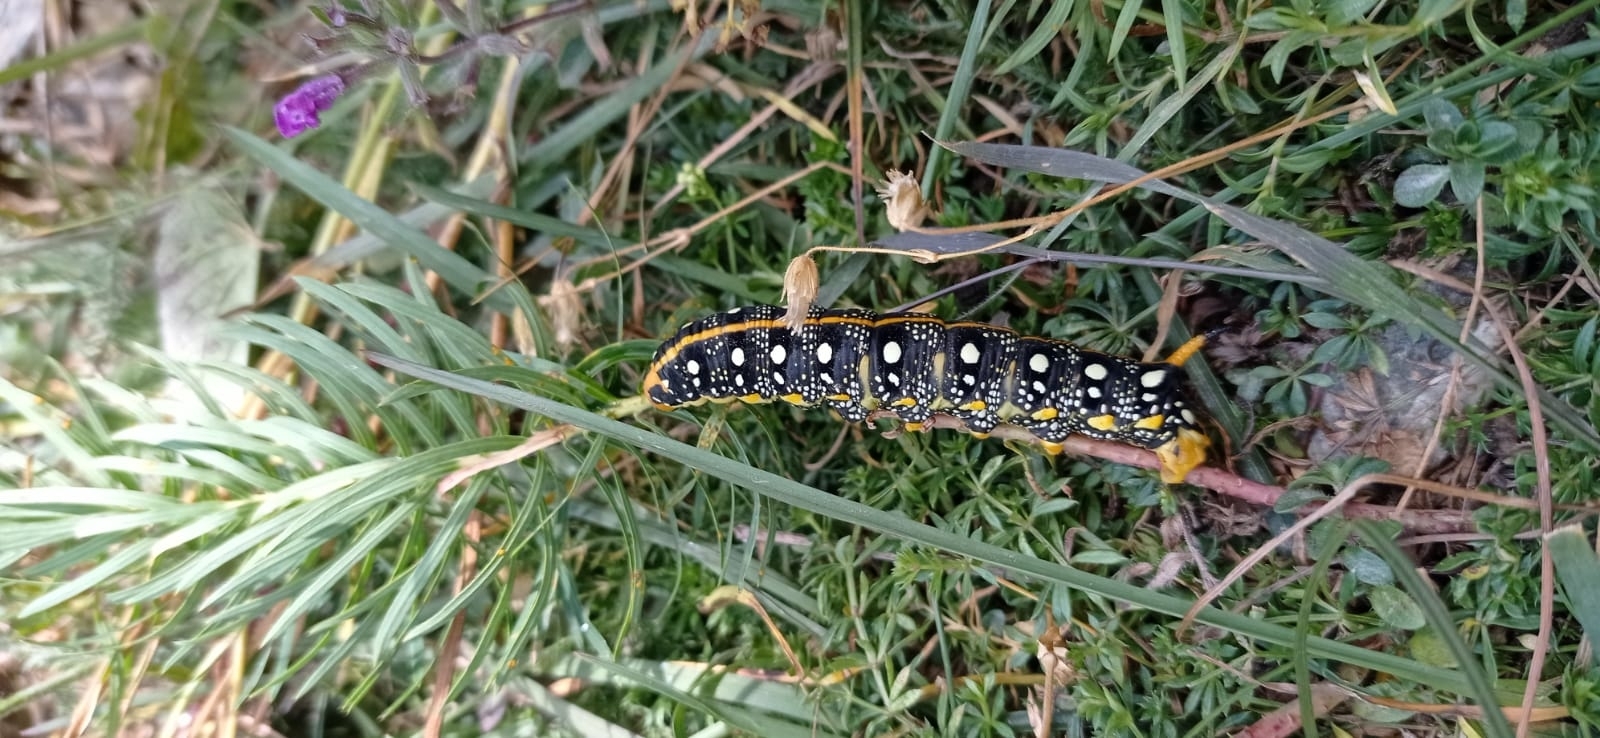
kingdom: Animalia
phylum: Arthropoda
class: Insecta
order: Lepidoptera
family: Sphingidae
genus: Hyles
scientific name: Hyles euphorbiae
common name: Spurge hawk-moth
